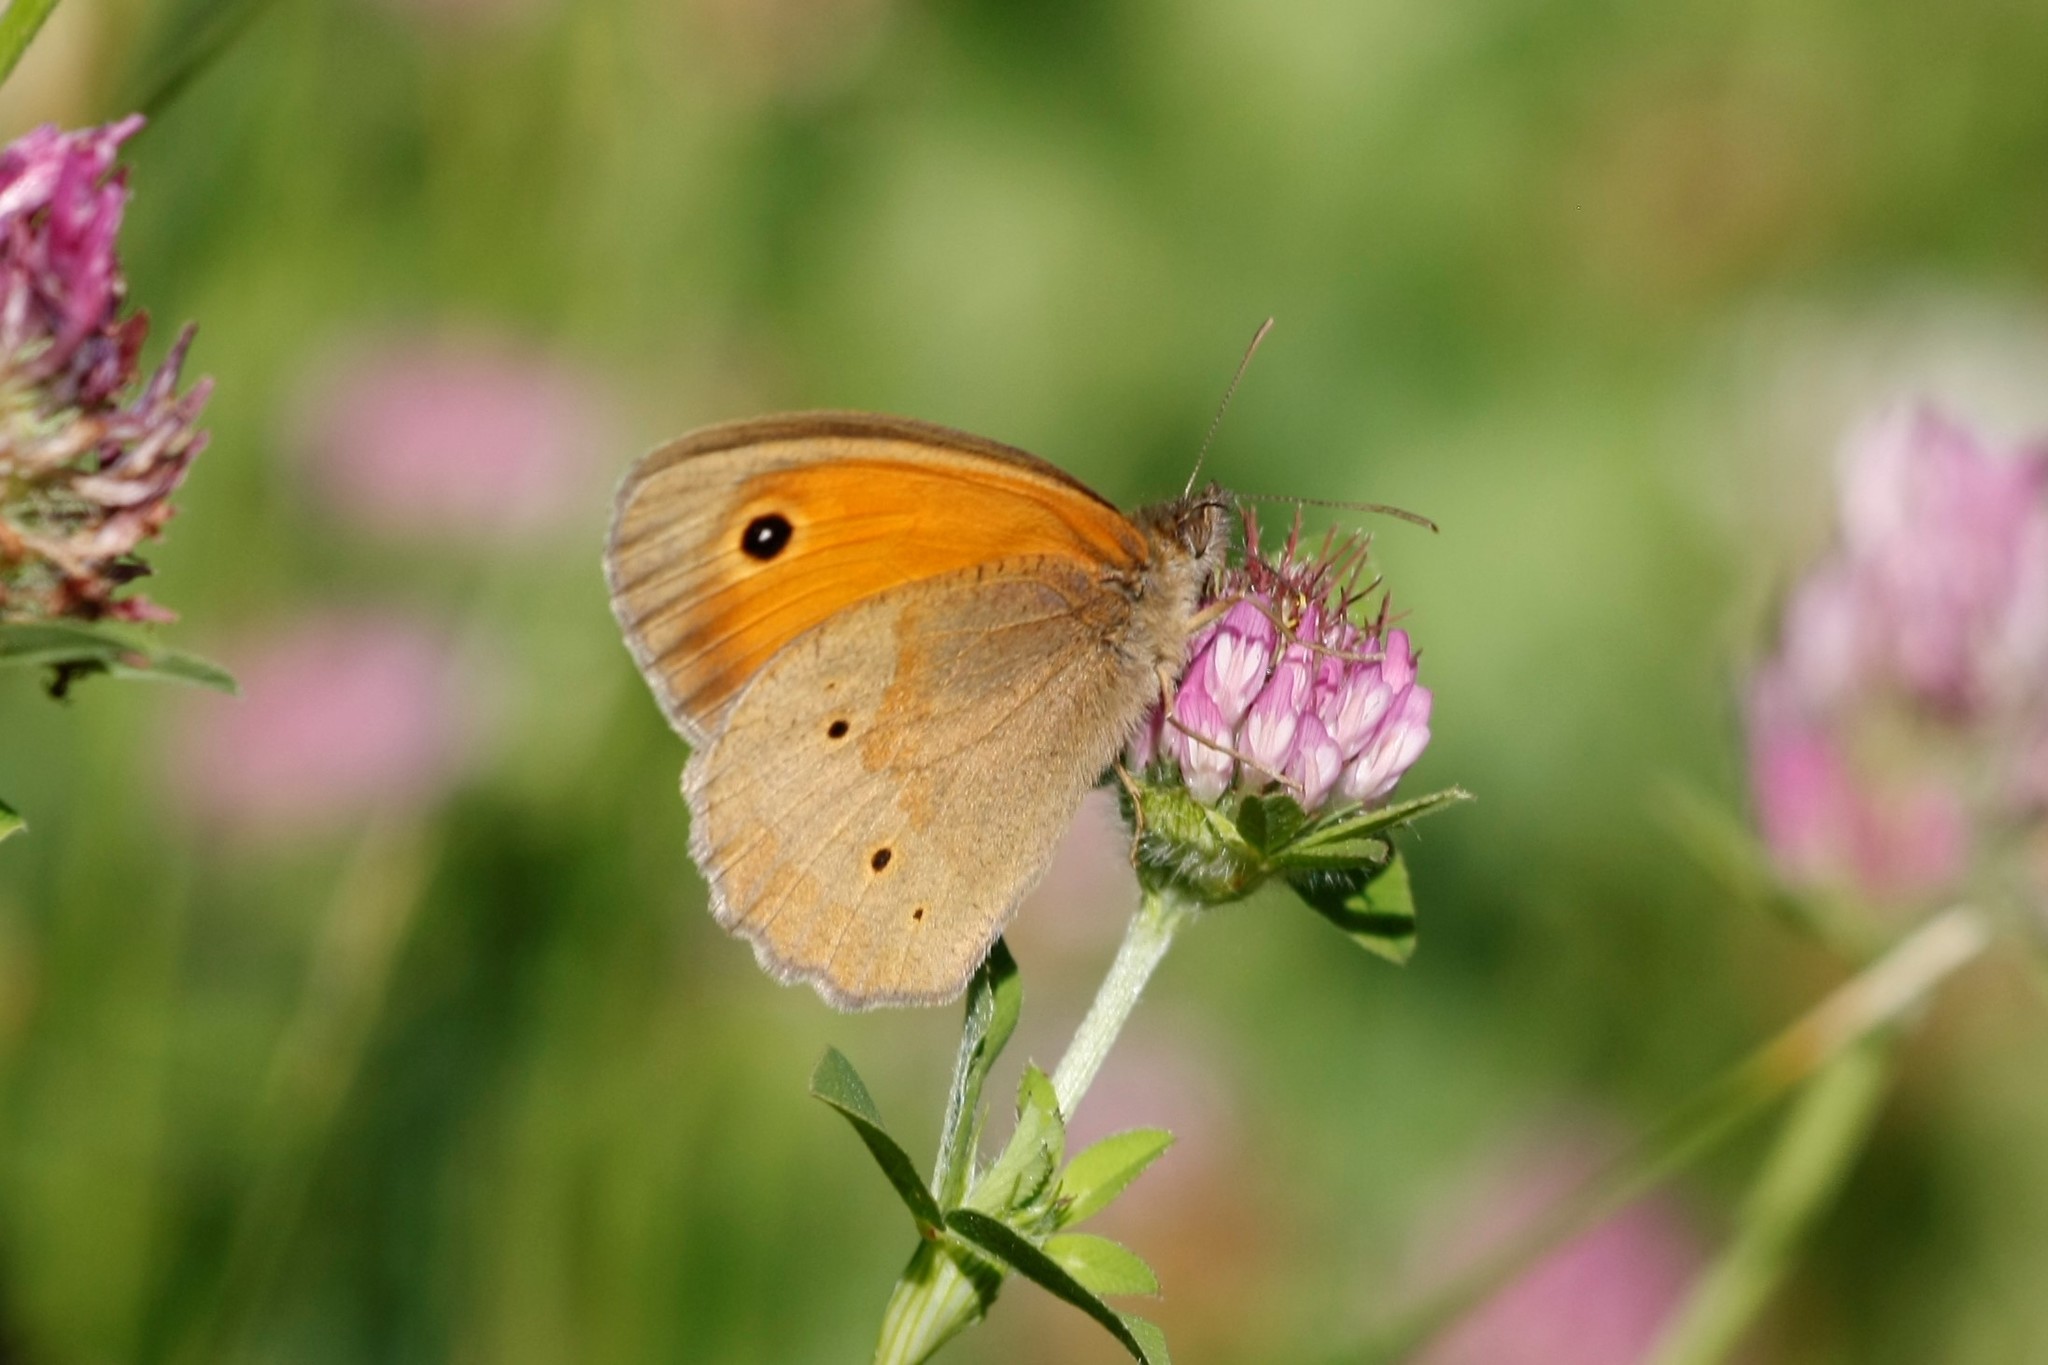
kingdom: Animalia
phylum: Arthropoda
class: Insecta
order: Lepidoptera
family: Nymphalidae
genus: Maniola
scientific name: Maniola jurtina
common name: Meadow brown
